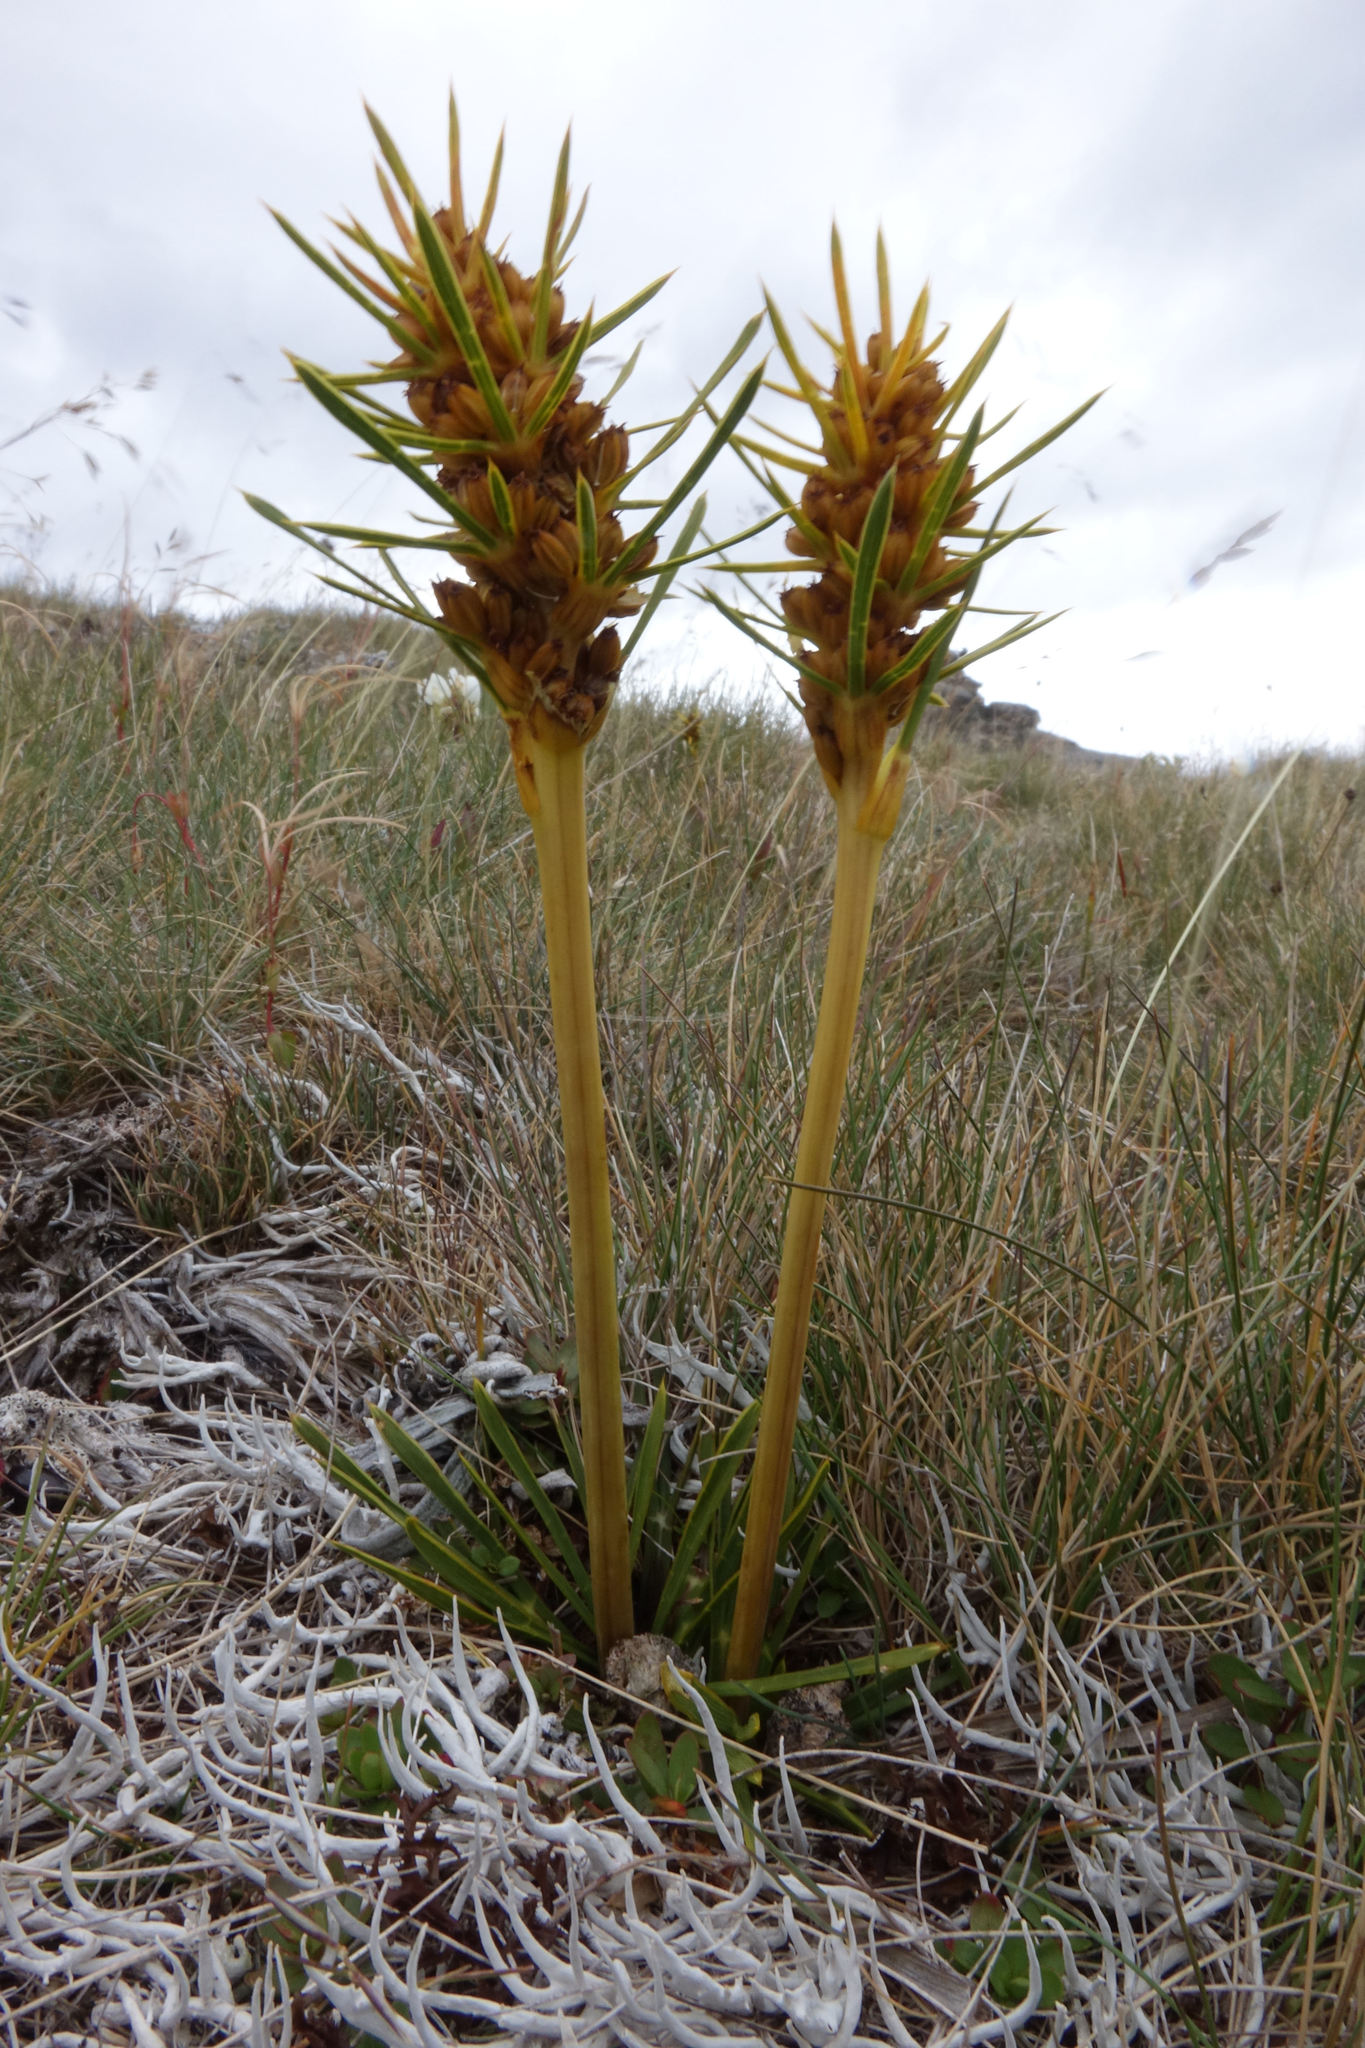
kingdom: Plantae
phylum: Tracheophyta
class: Magnoliopsida
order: Apiales
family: Apiaceae
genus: Aciphylla
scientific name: Aciphylla verticillata
